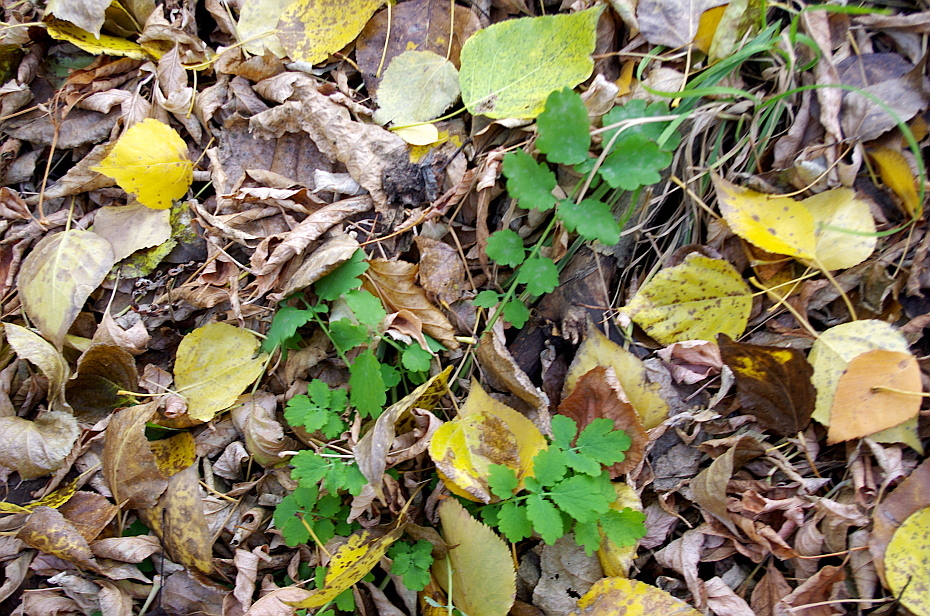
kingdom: Plantae
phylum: Tracheophyta
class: Magnoliopsida
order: Ranunculales
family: Papaveraceae
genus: Chelidonium
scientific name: Chelidonium majus
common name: Greater celandine
